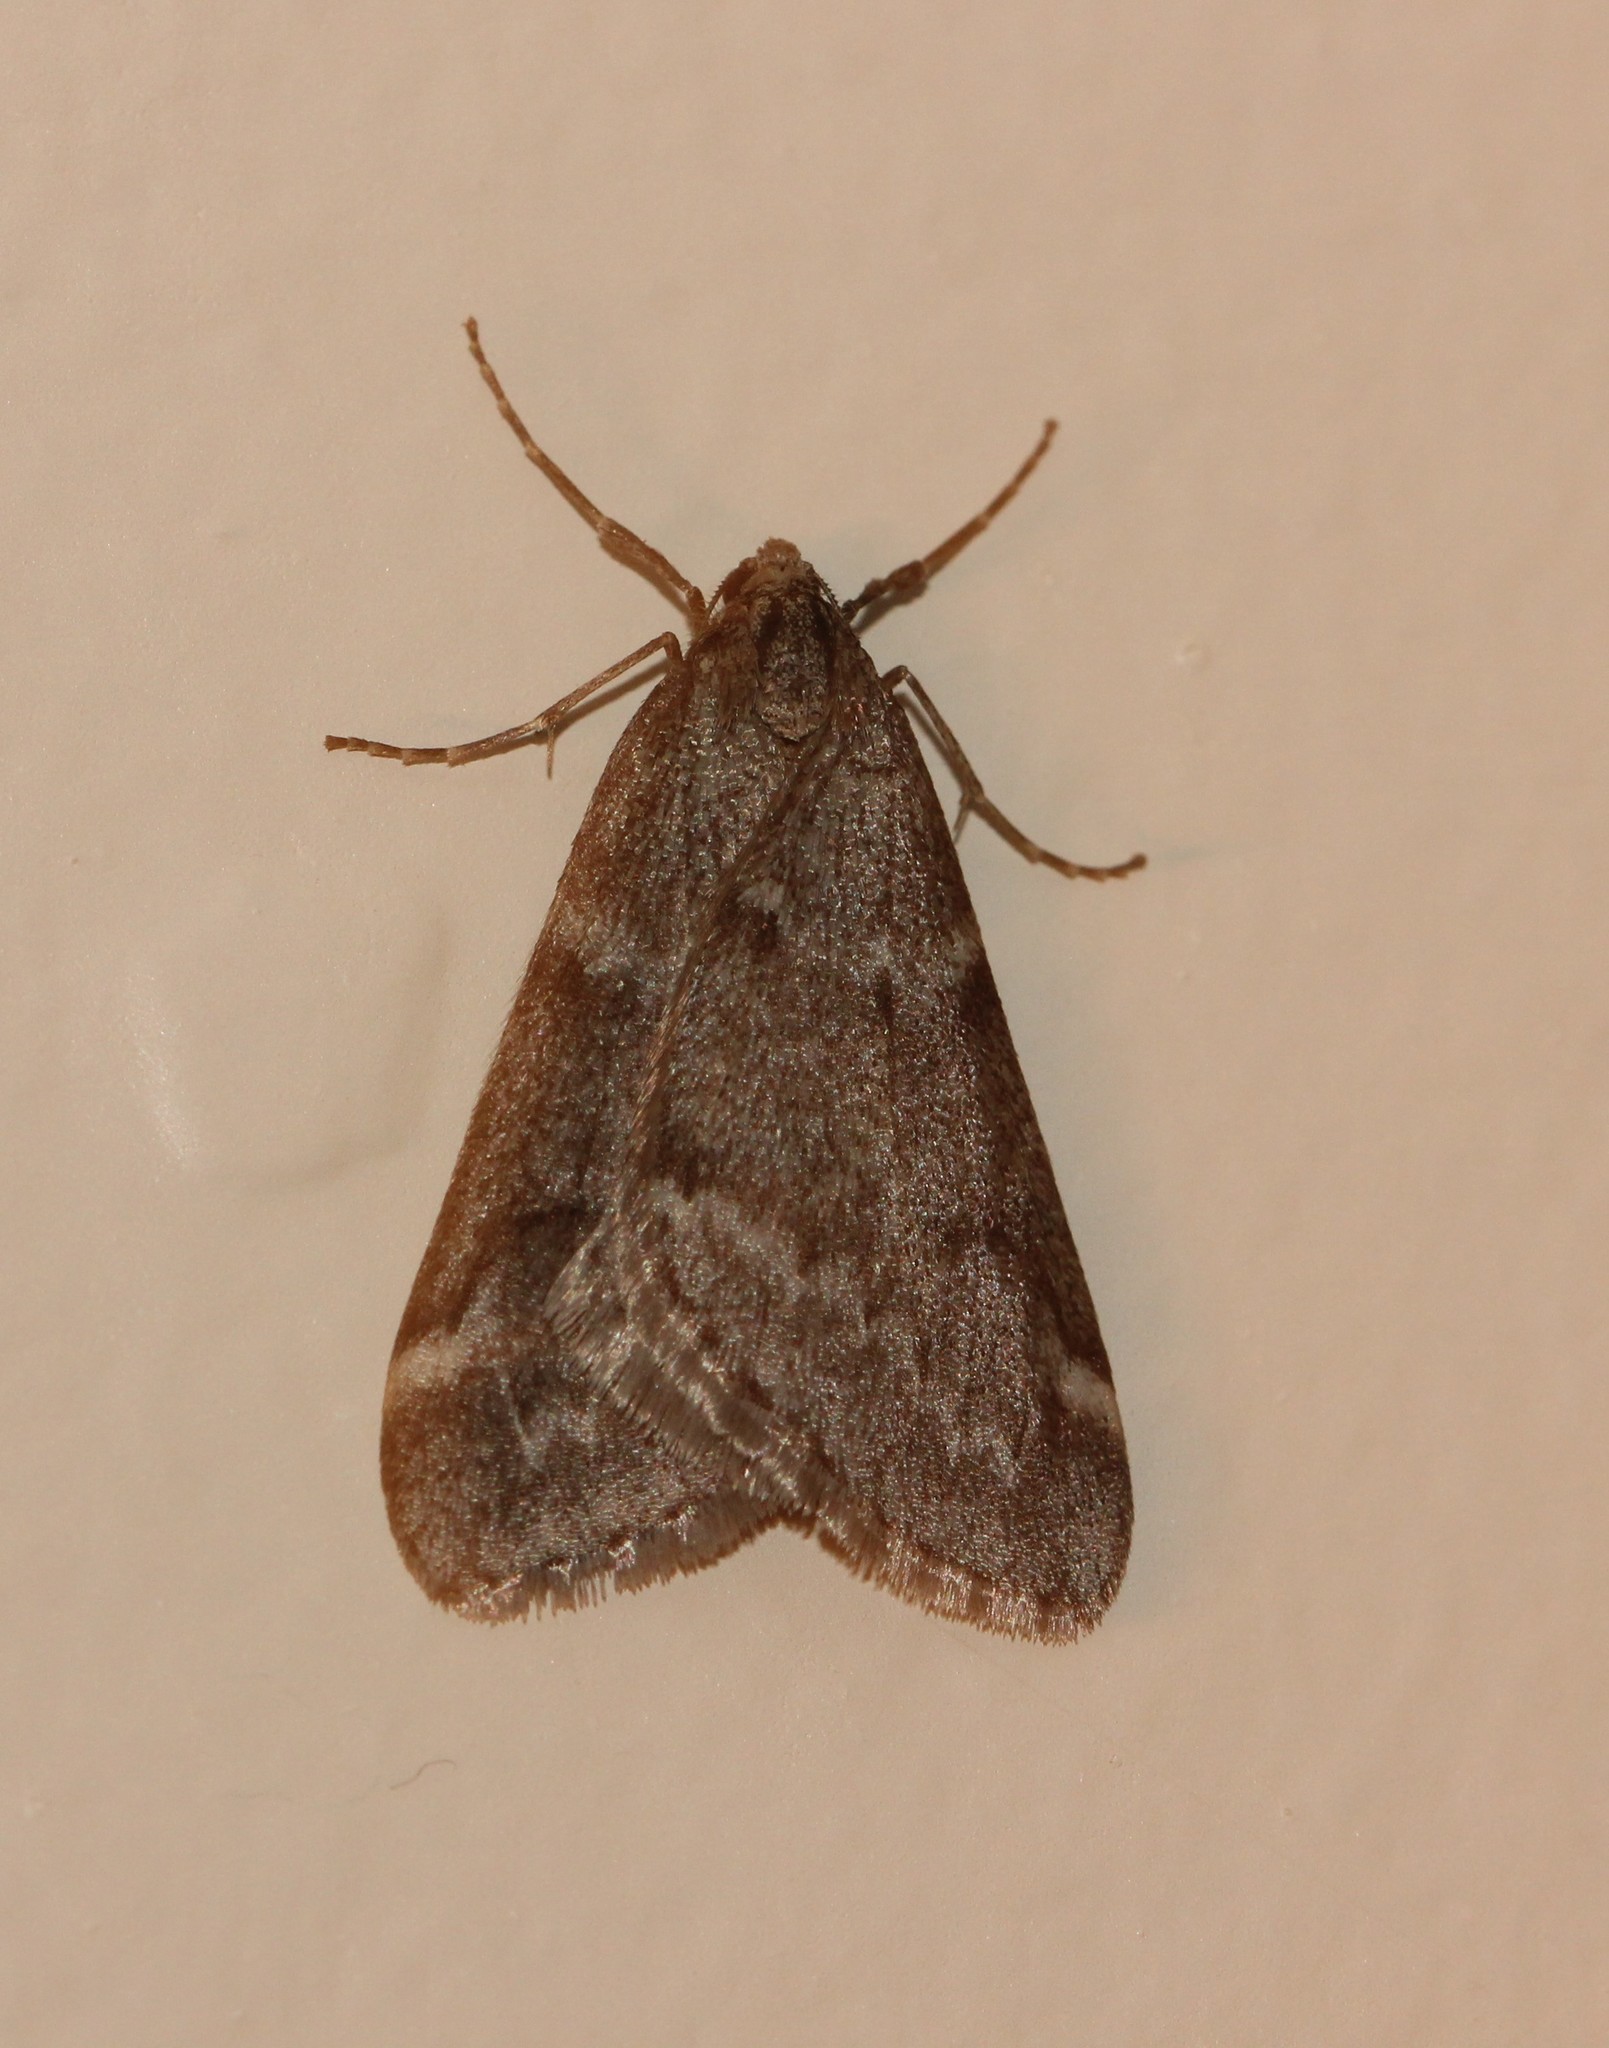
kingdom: Animalia
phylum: Arthropoda
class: Insecta
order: Lepidoptera
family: Geometridae
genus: Alsophila
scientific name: Alsophila pometaria
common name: Fall cankerworm
